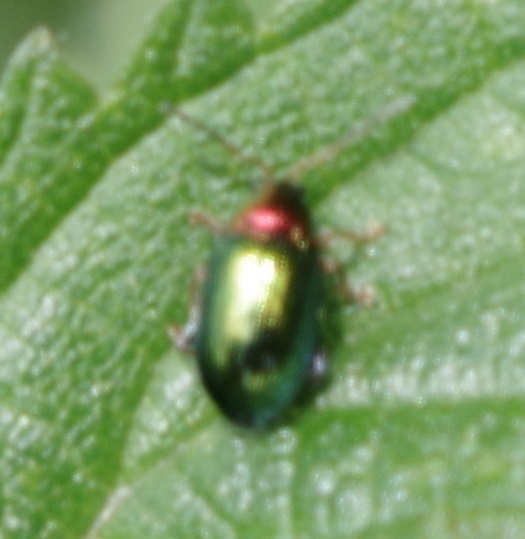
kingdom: Animalia
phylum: Arthropoda
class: Insecta
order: Coleoptera
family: Chrysomelidae
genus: Crepidodera
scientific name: Crepidodera aurata
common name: Willow flea beetle
